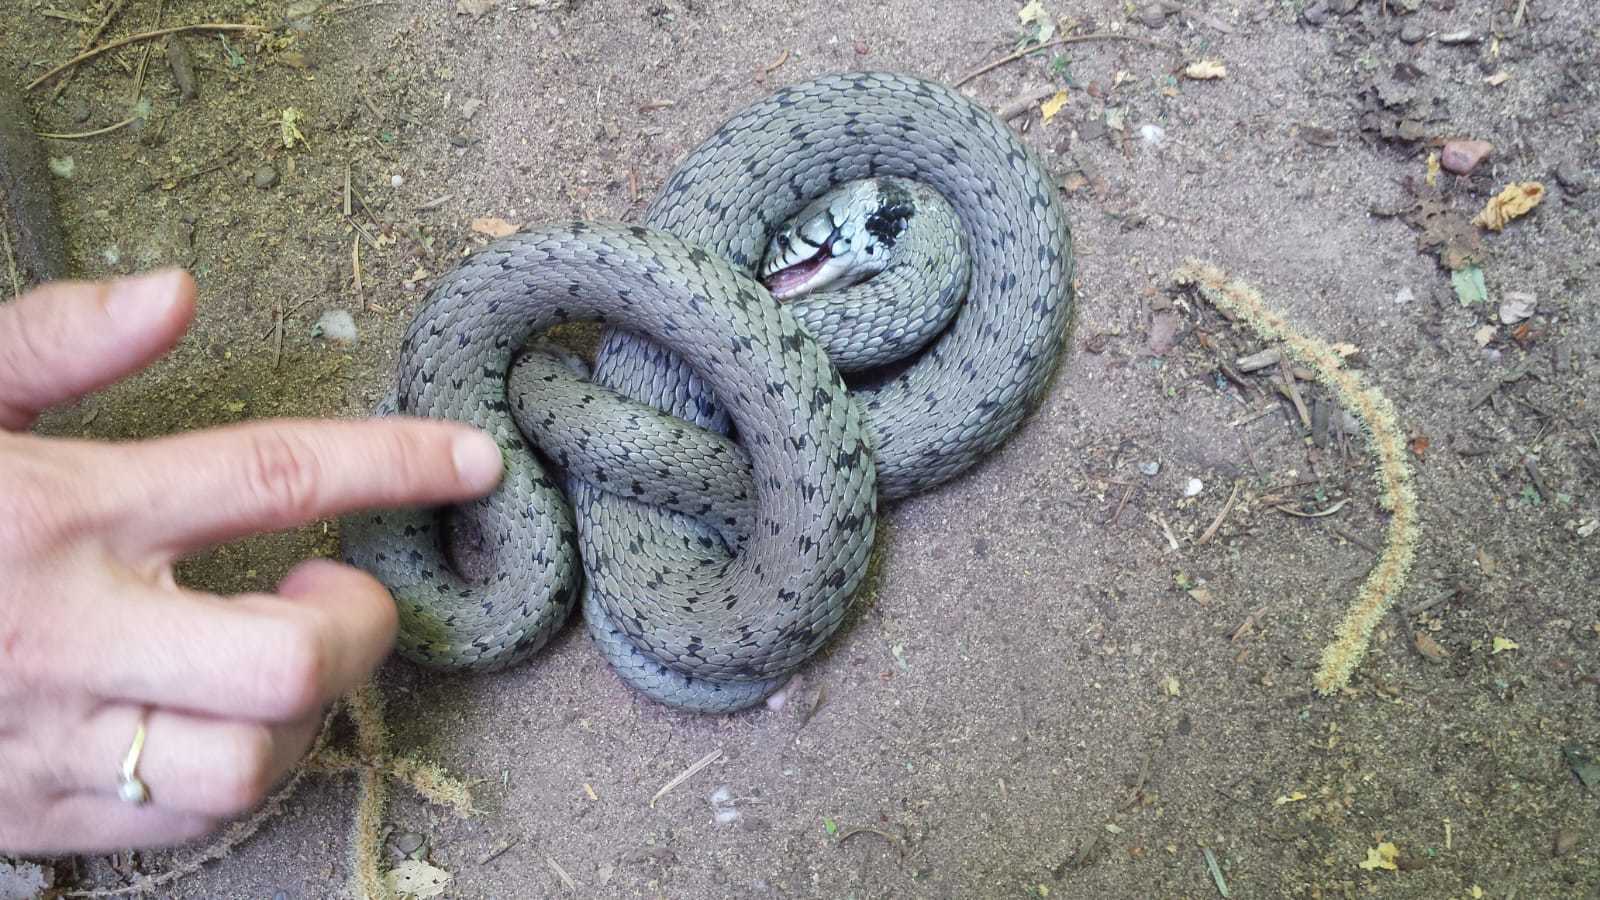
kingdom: Animalia
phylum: Chordata
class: Squamata
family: Colubridae
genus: Natrix
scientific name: Natrix helvetica
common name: Banded grass snake
